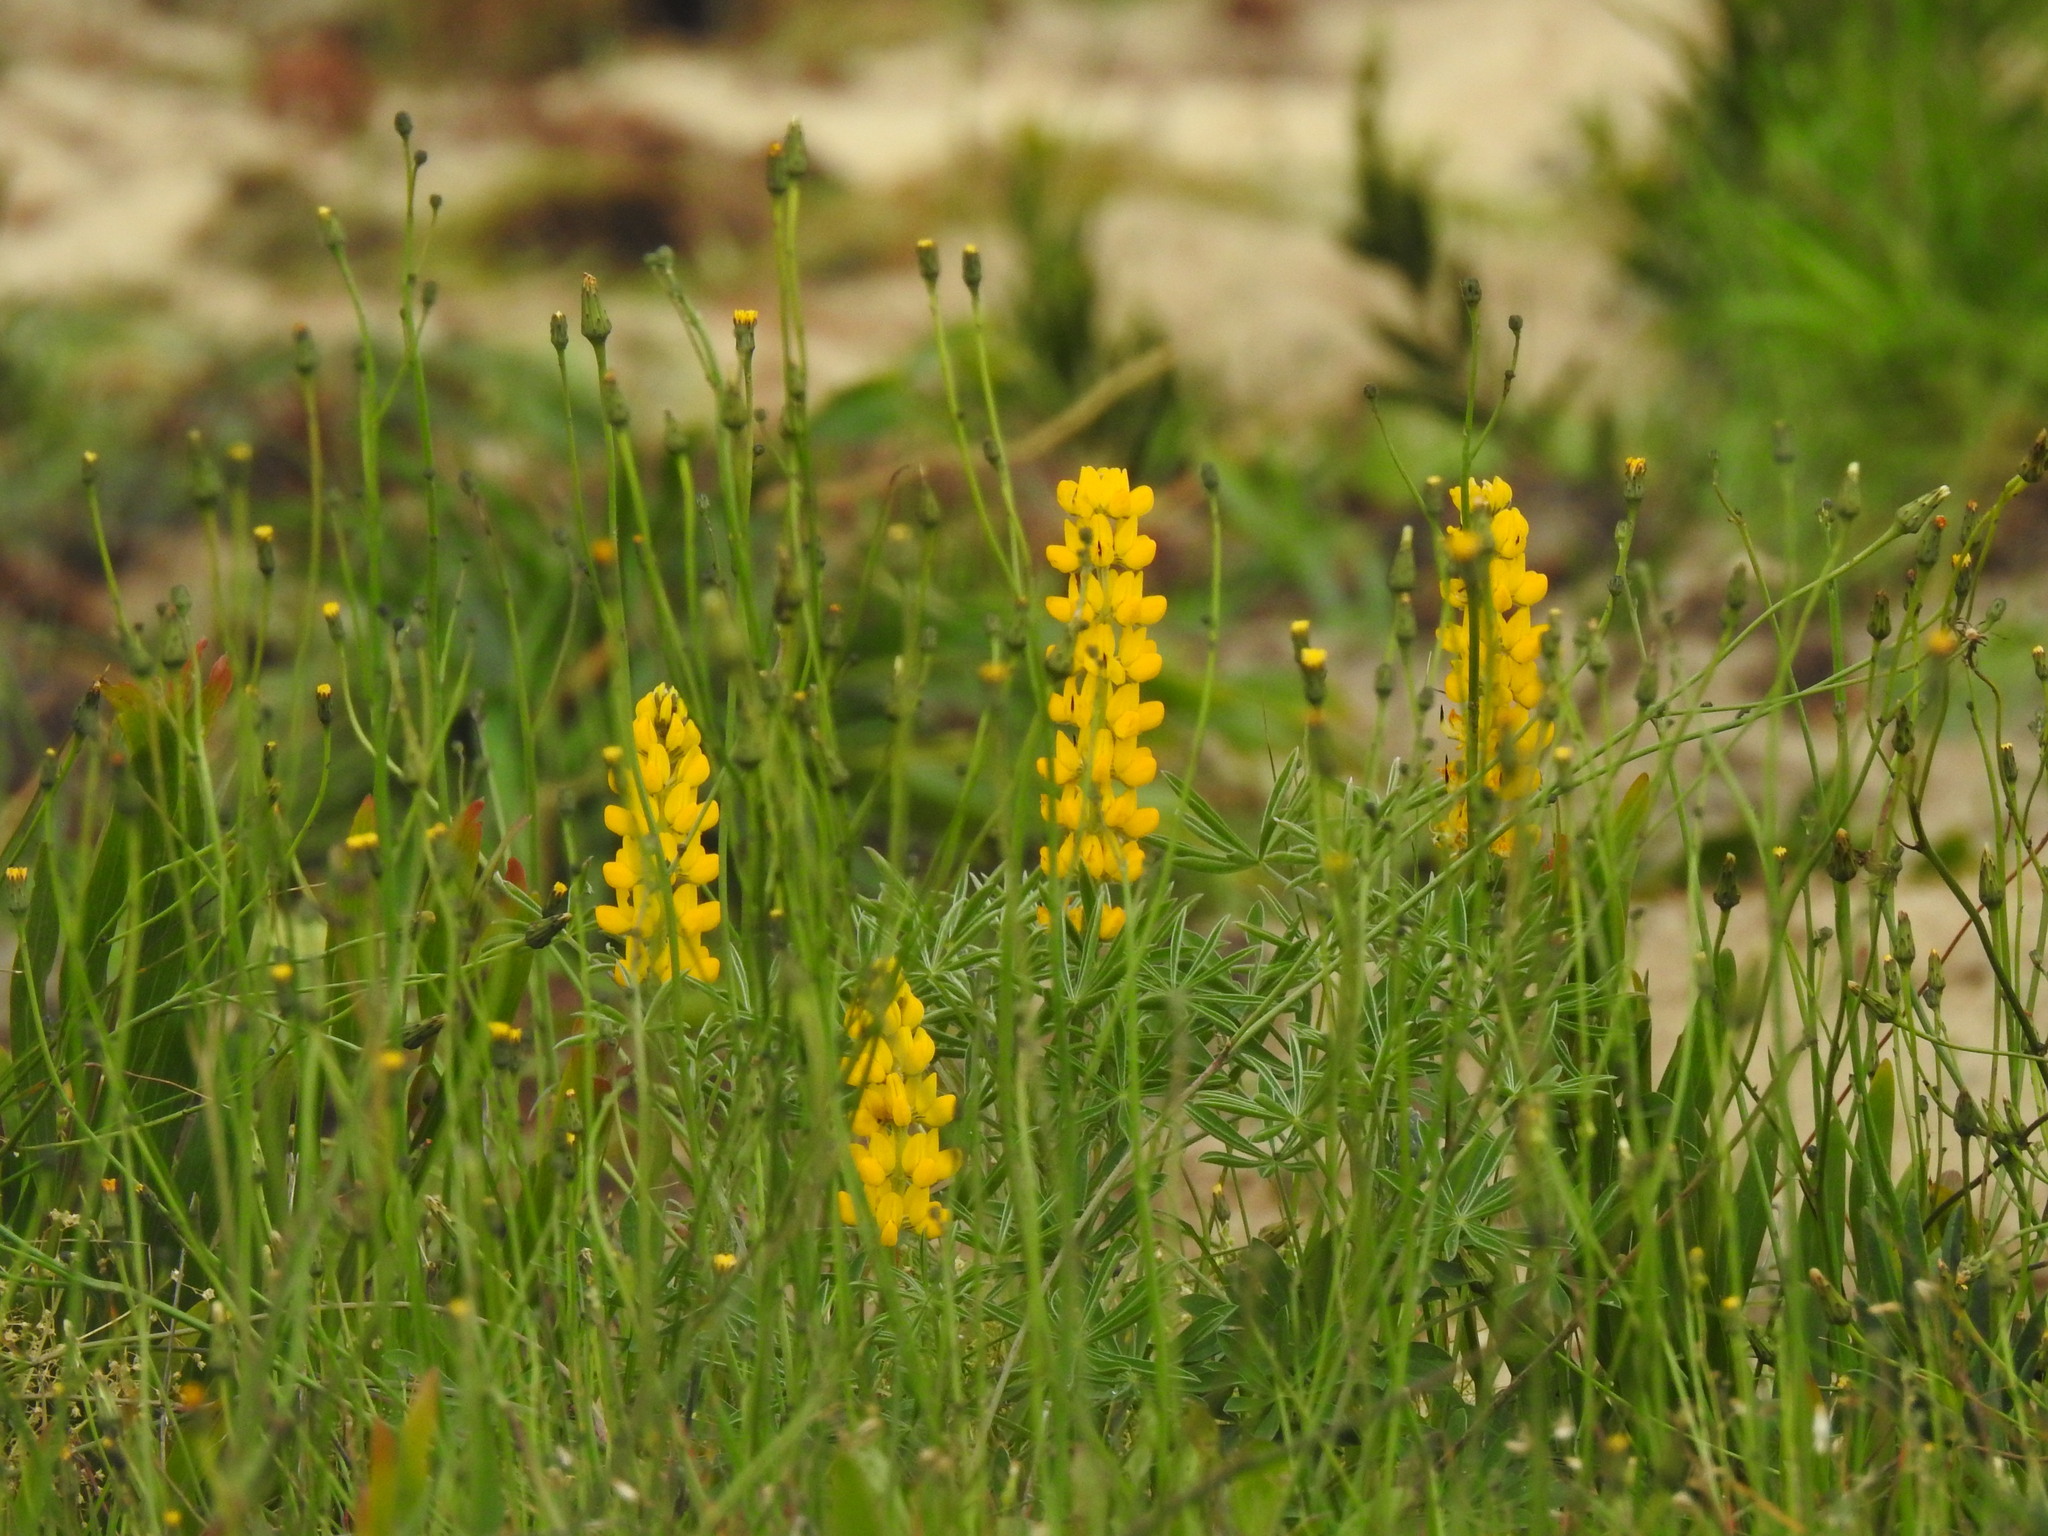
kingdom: Plantae
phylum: Tracheophyta
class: Magnoliopsida
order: Fabales
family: Fabaceae
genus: Lupinus
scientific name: Lupinus luteus
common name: European yellow lupine
